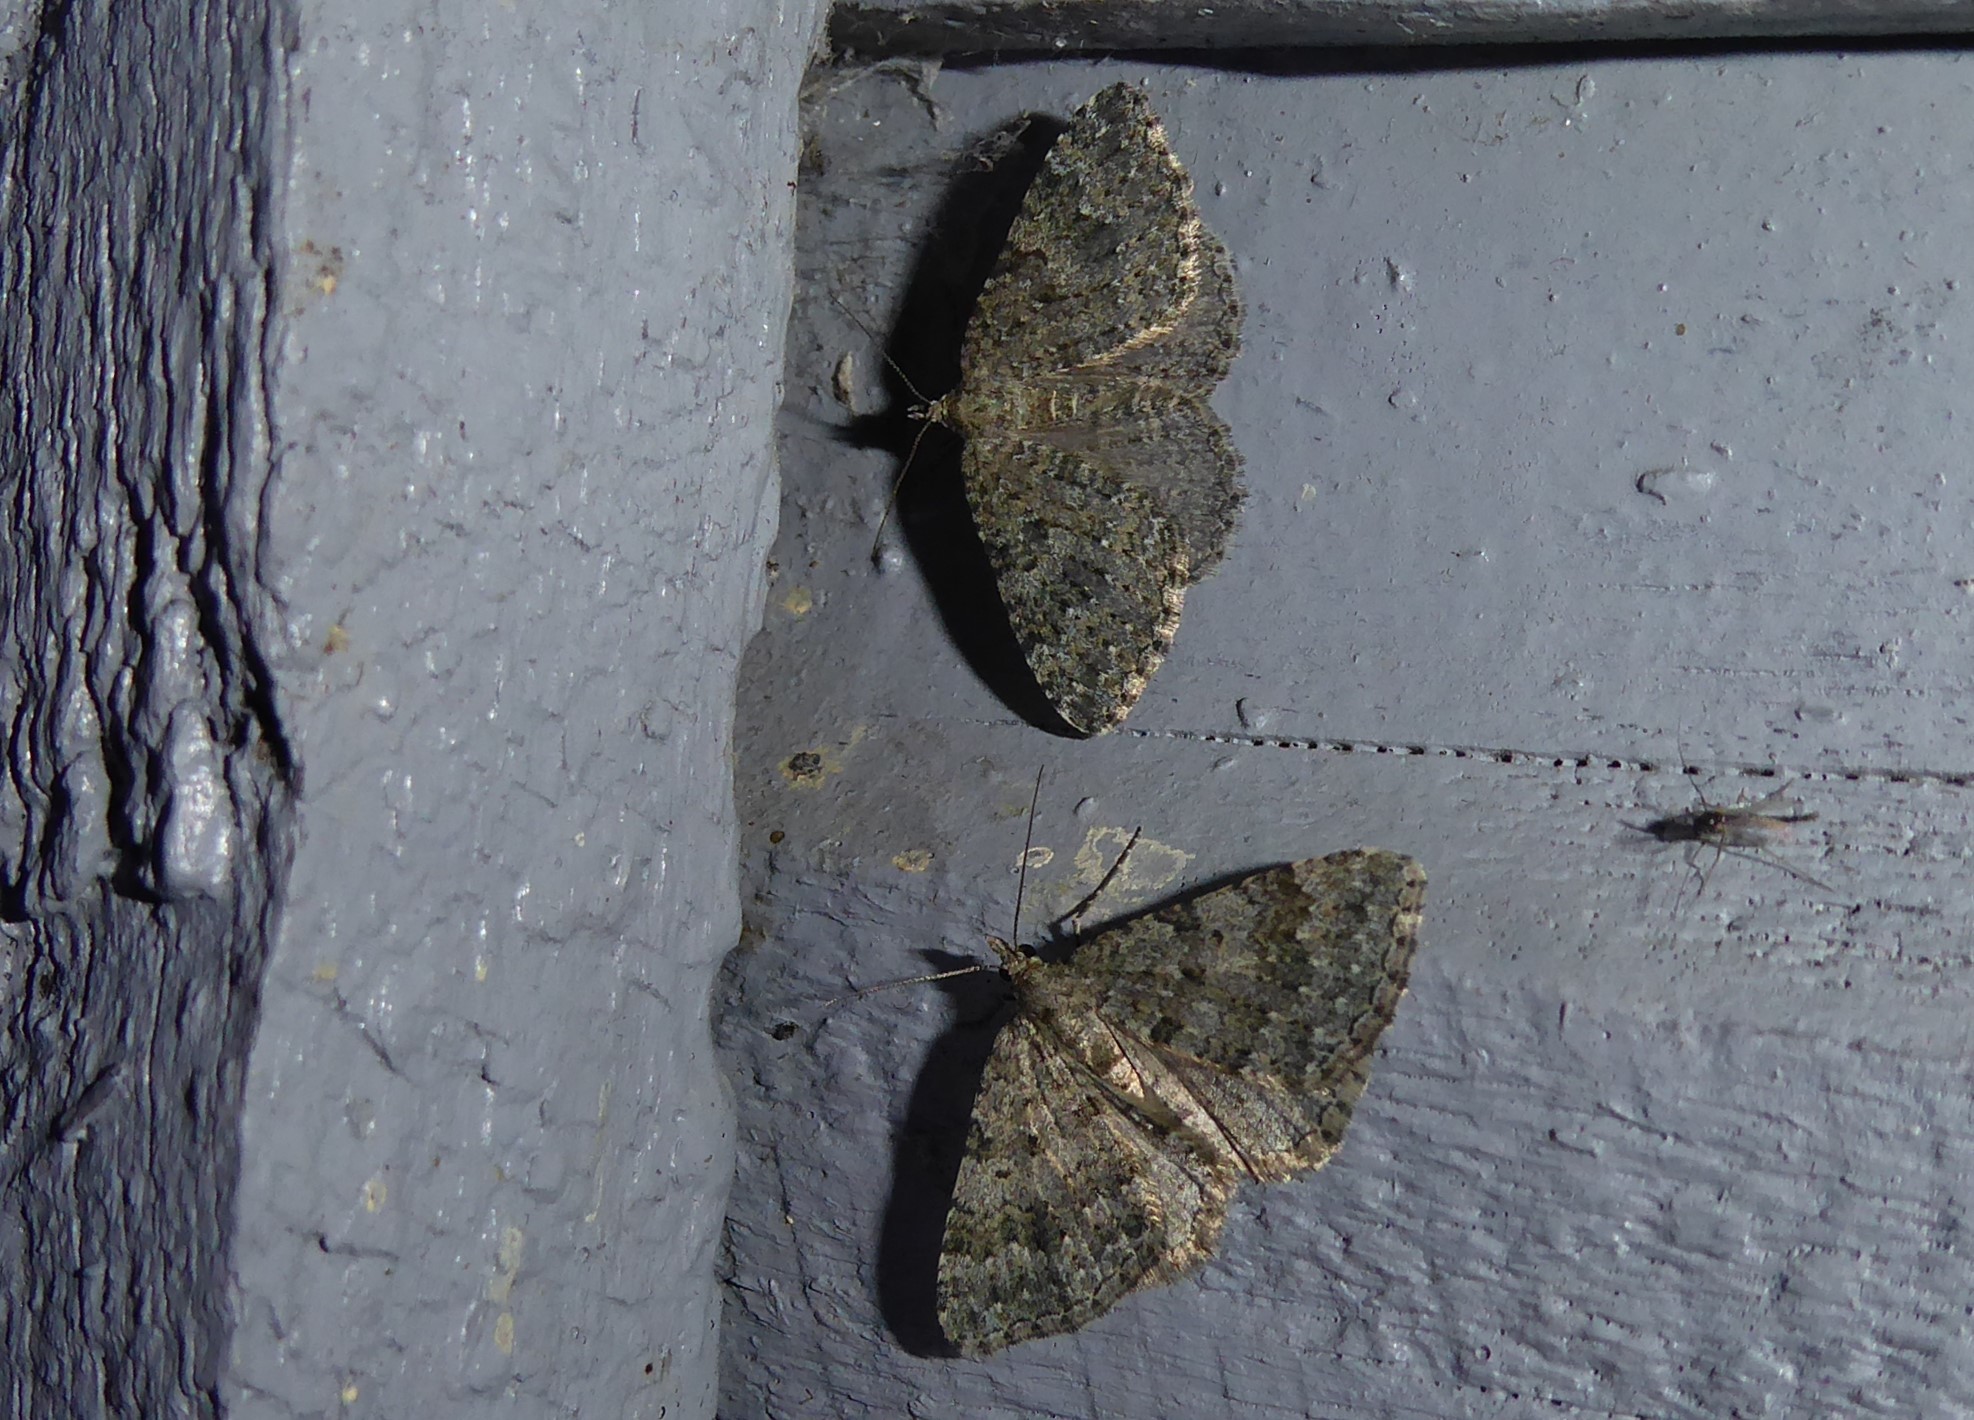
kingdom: Animalia
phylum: Arthropoda
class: Insecta
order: Lepidoptera
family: Geometridae
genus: Helastia
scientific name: Helastia corcularia
